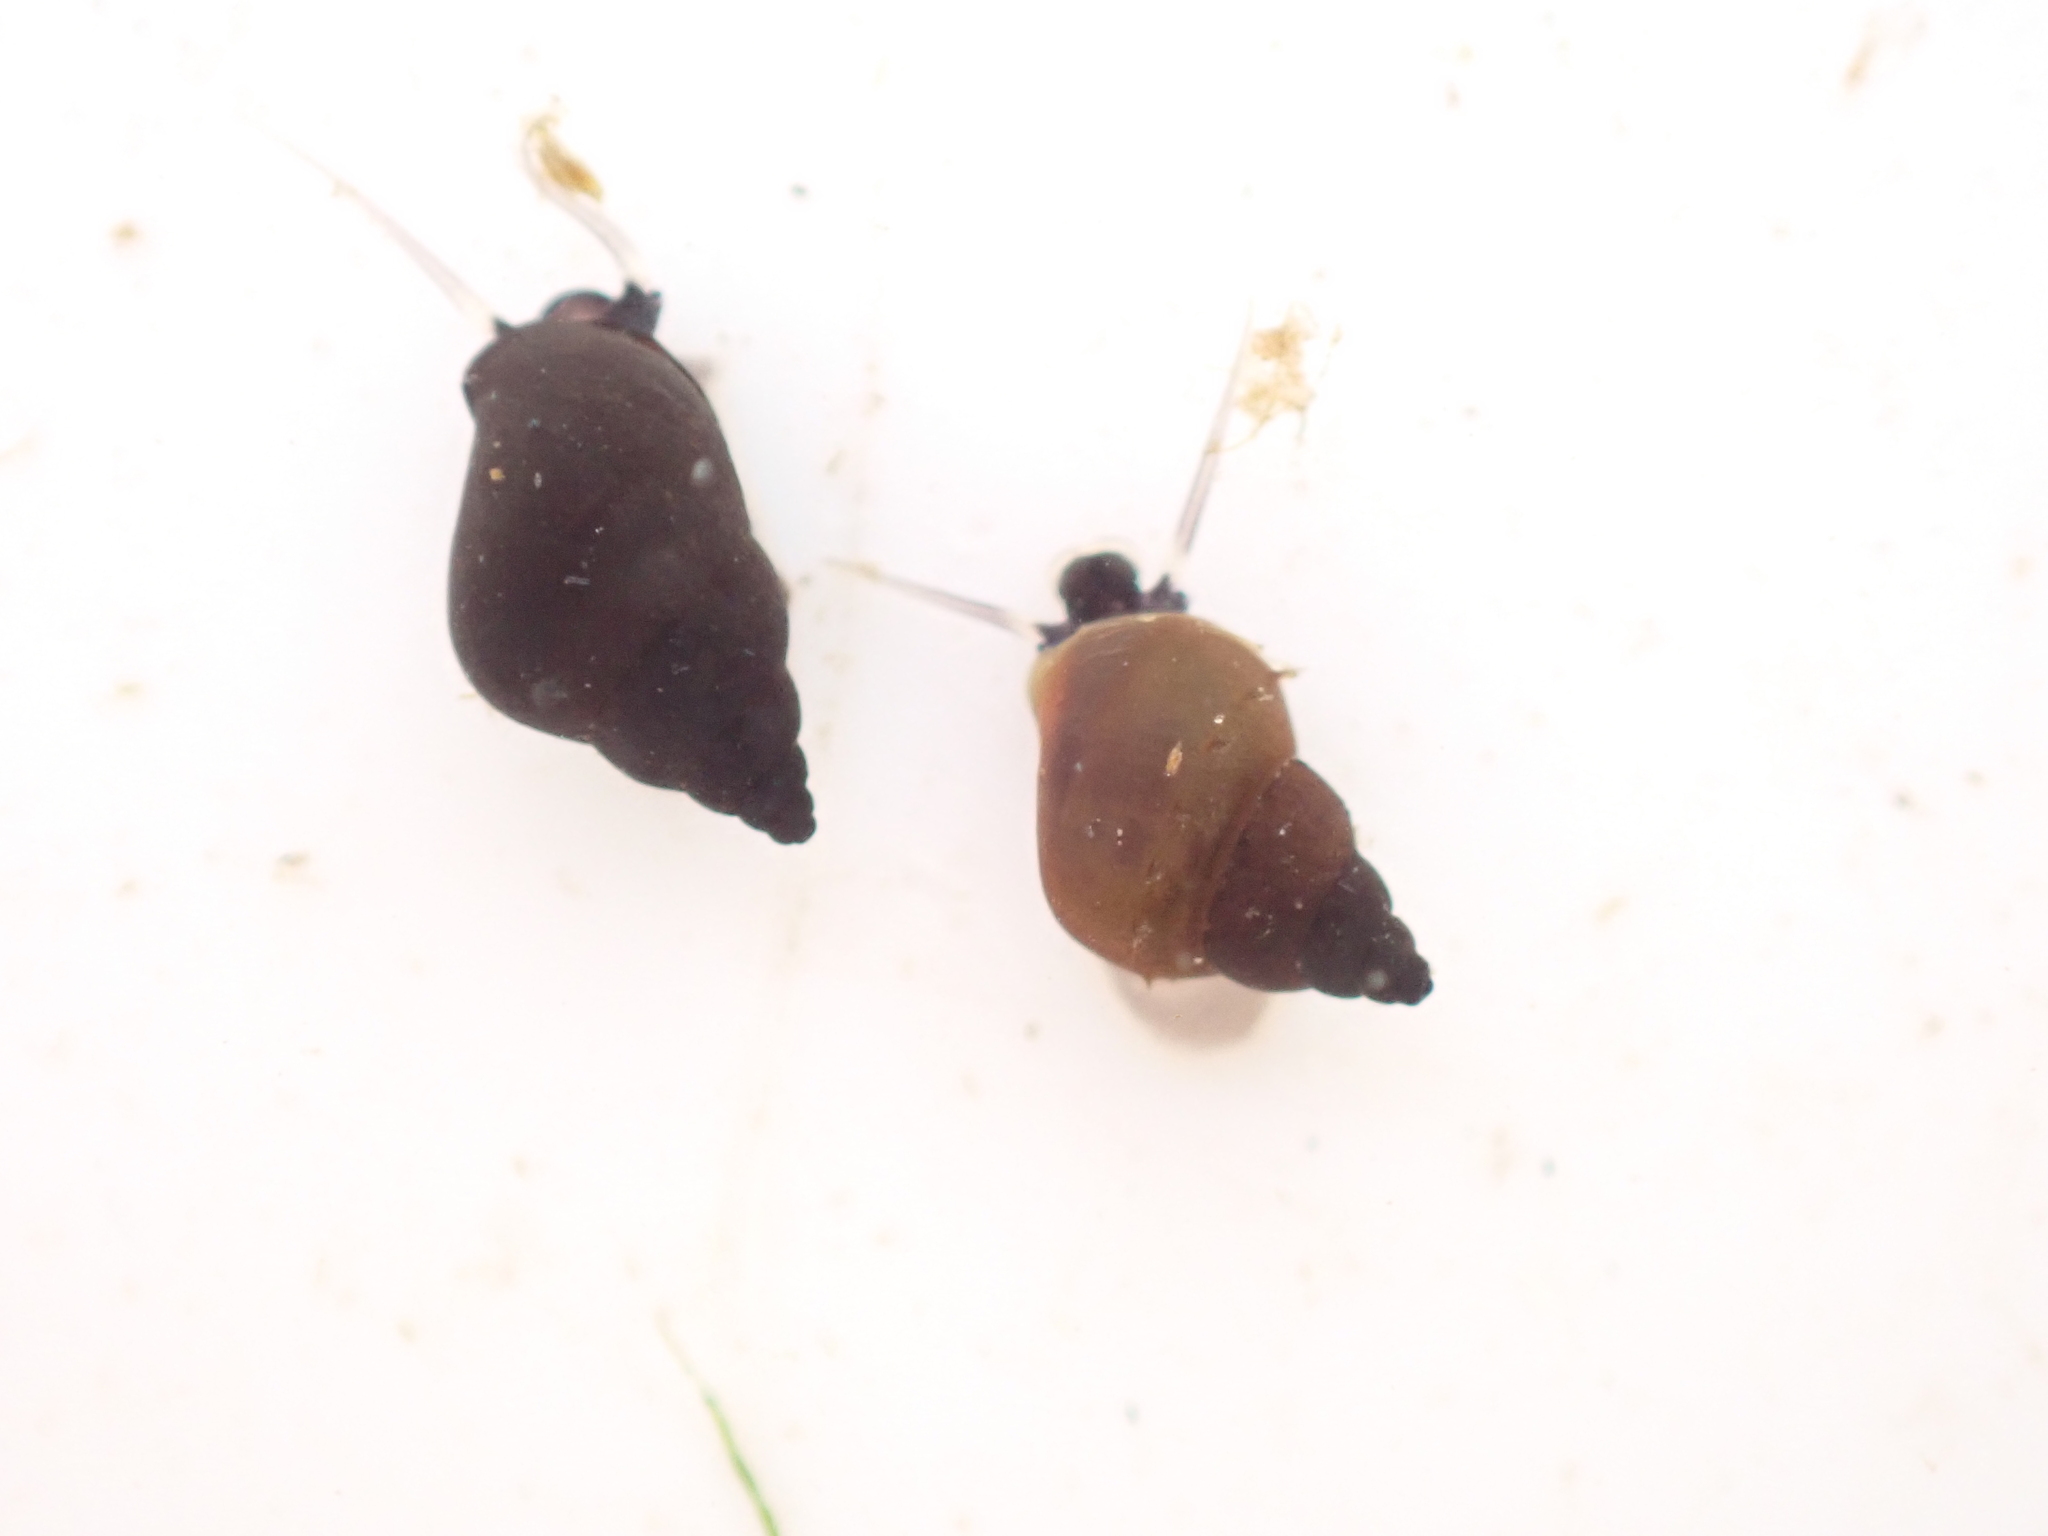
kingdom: Animalia
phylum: Mollusca
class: Gastropoda
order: Littorinimorpha
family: Tateidae
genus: Potamopyrgus
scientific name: Potamopyrgus antipodarum
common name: Jenkins' spire snail
